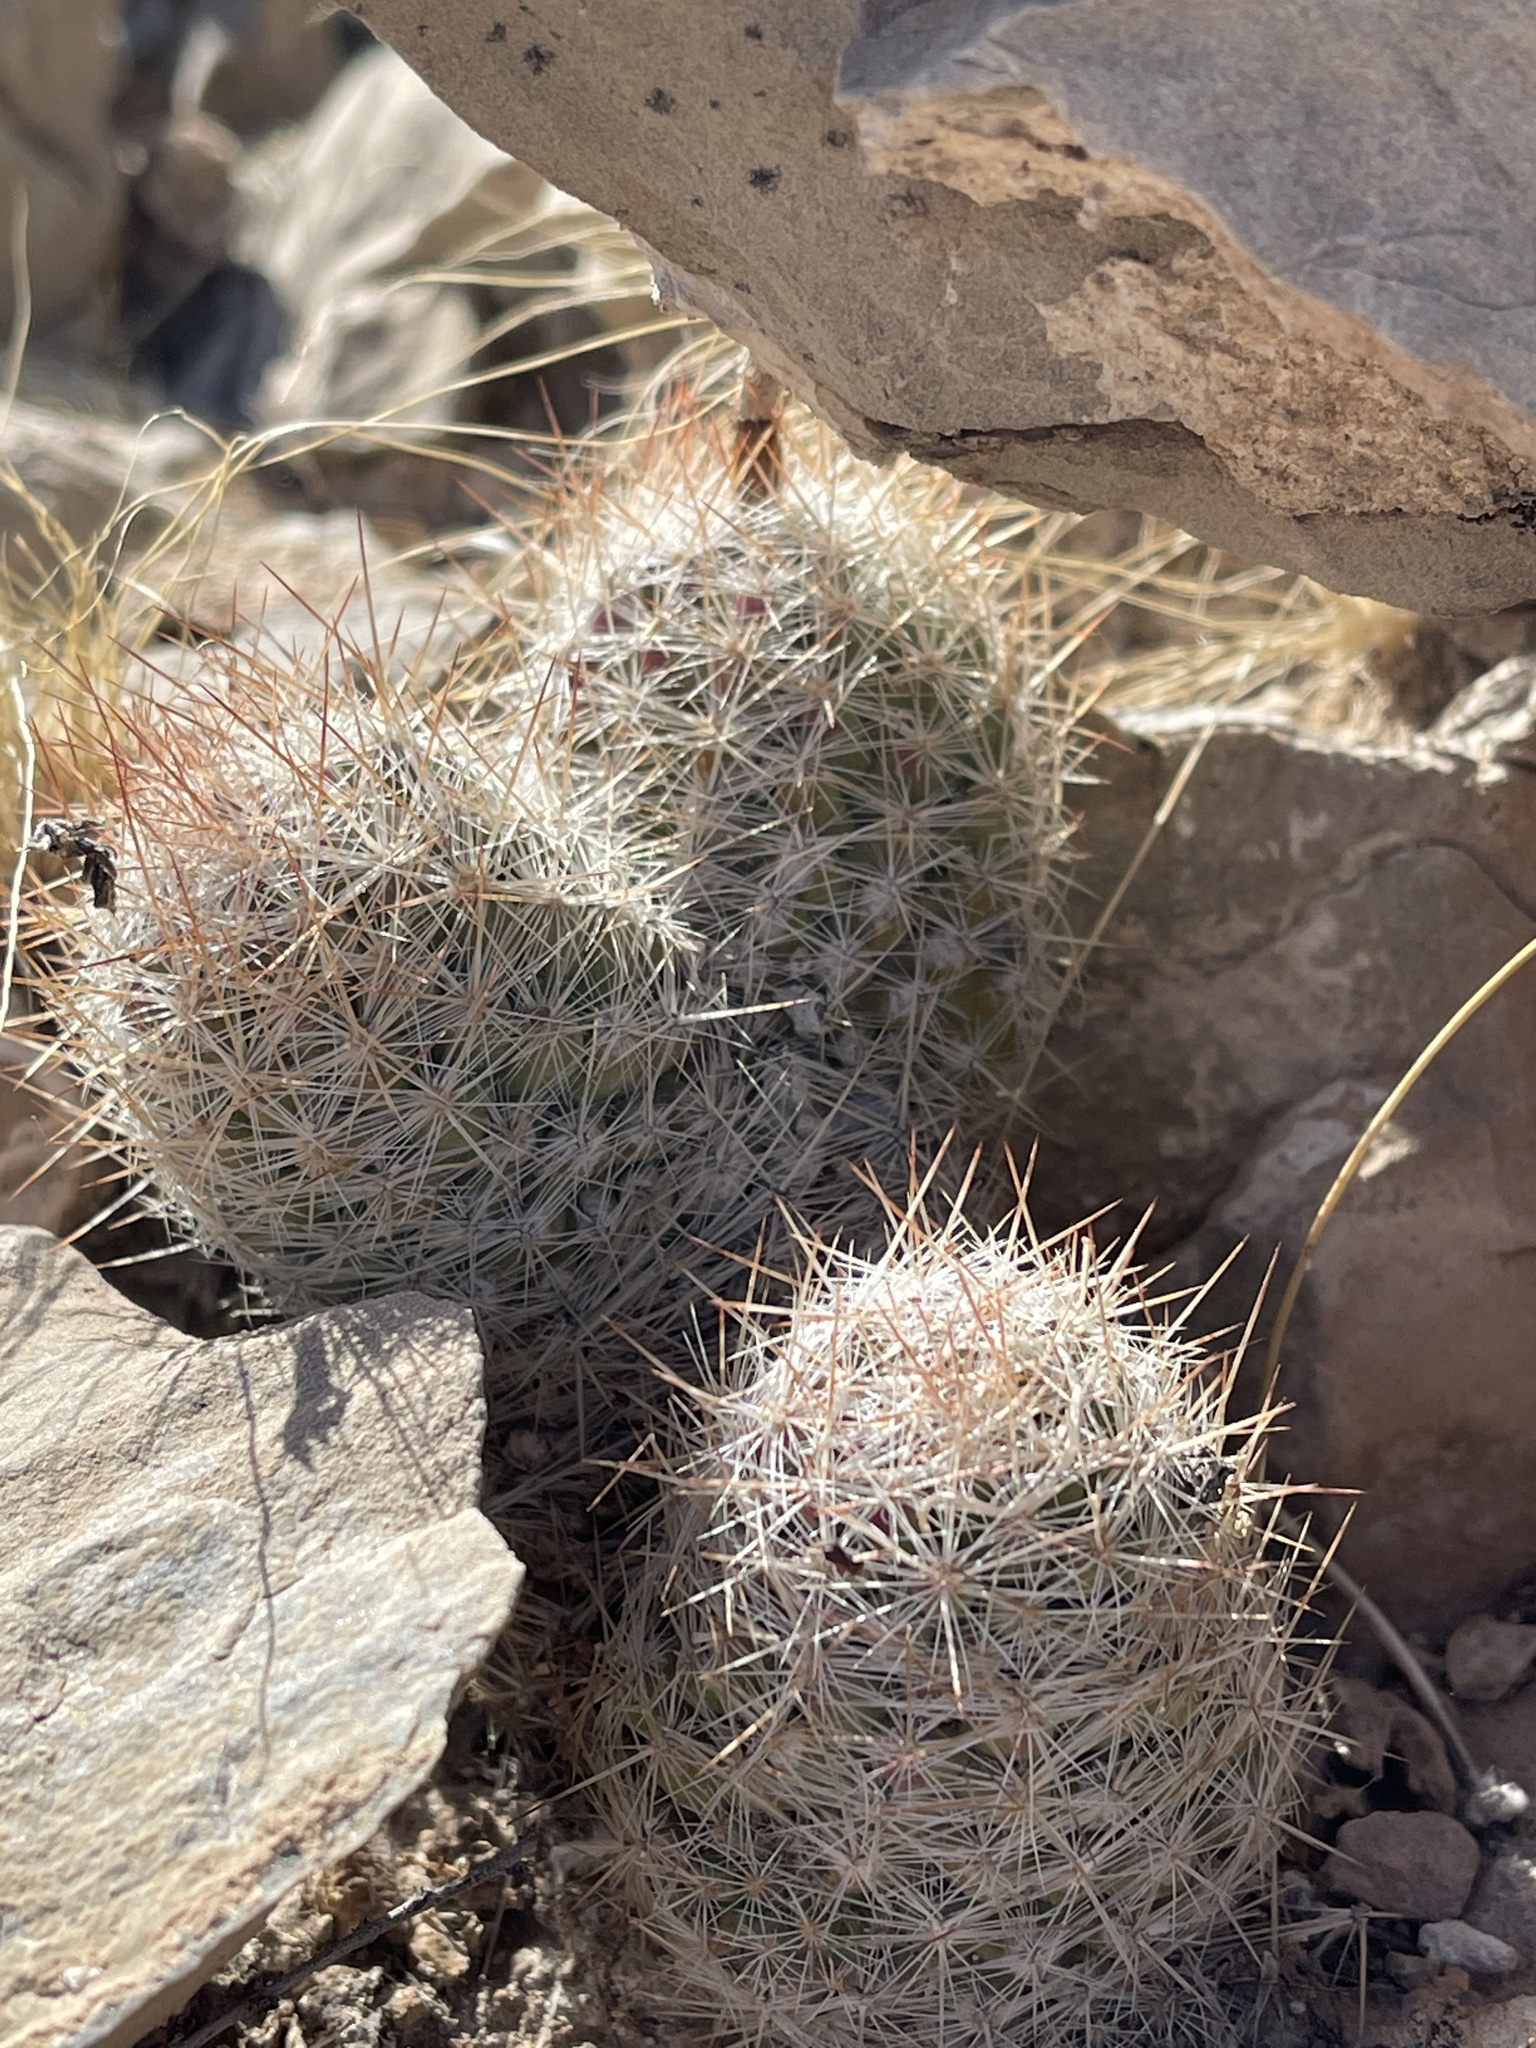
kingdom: Plantae
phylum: Tracheophyta
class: Magnoliopsida
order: Caryophyllales
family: Cactaceae
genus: Pelecyphora
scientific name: Pelecyphora tuberculosa
